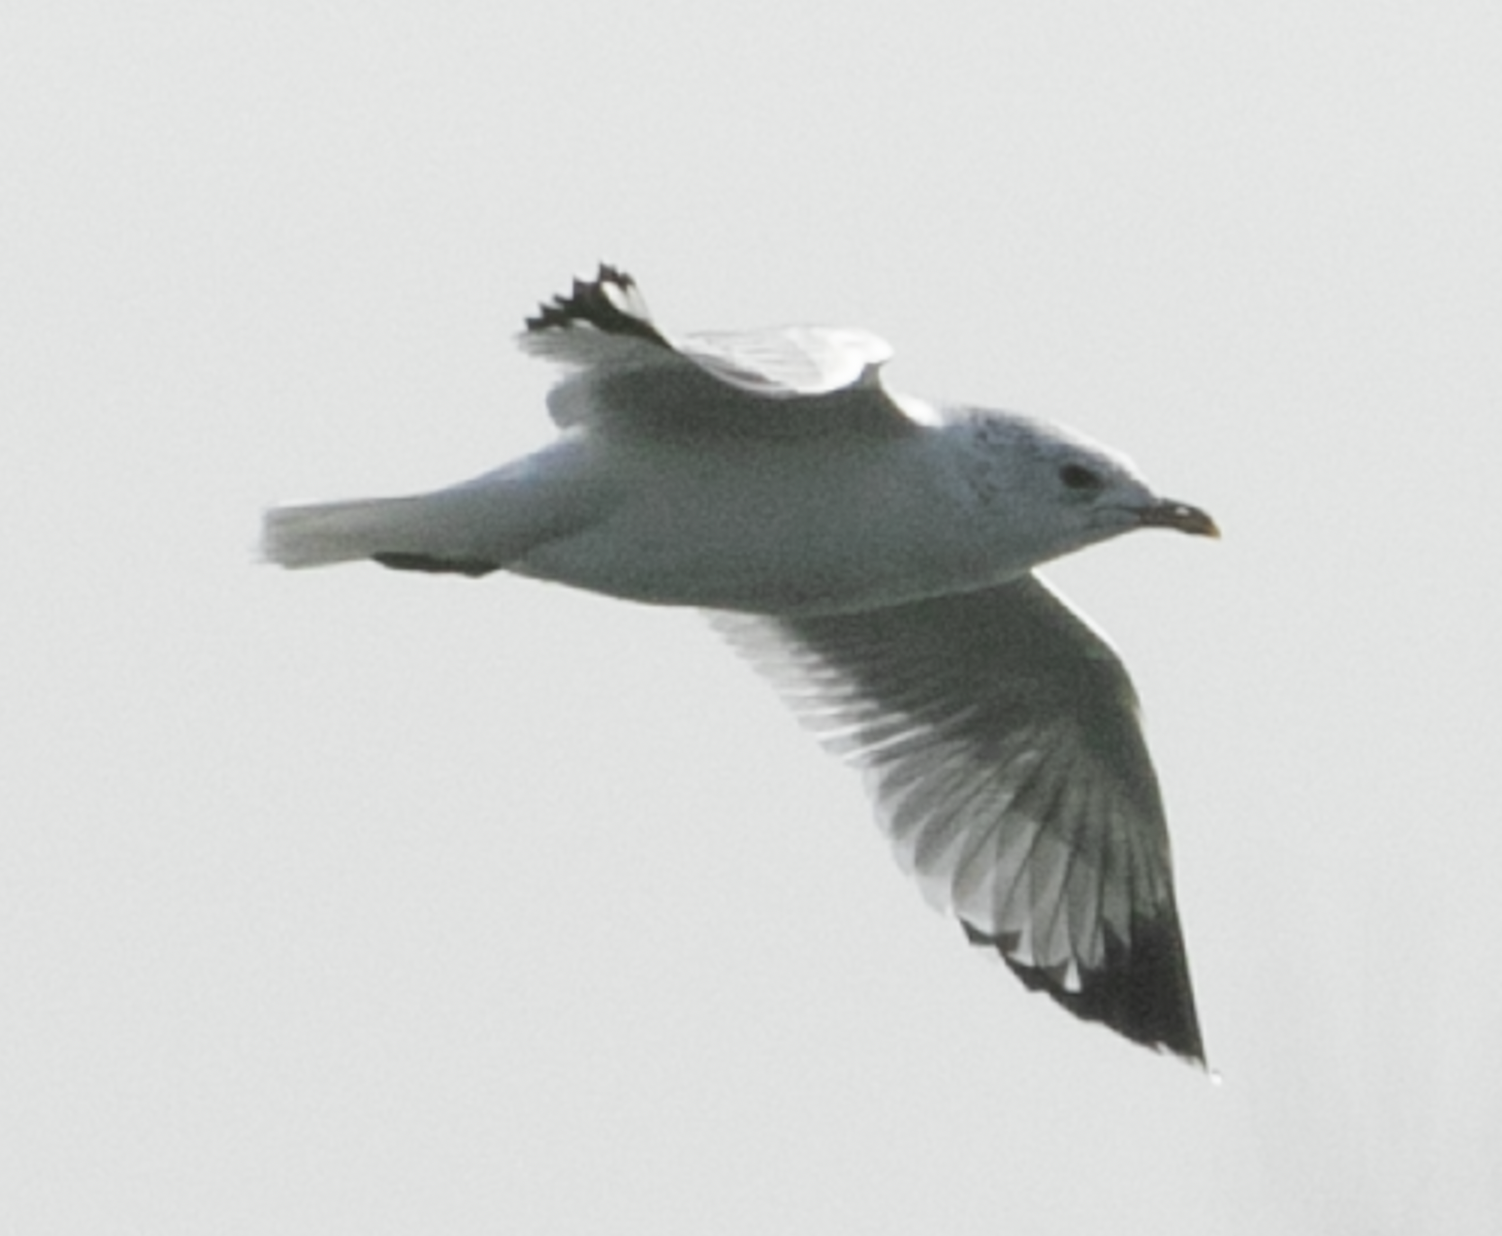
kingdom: Animalia
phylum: Chordata
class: Aves
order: Charadriiformes
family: Laridae
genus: Larus
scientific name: Larus canus
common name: Mew gull
